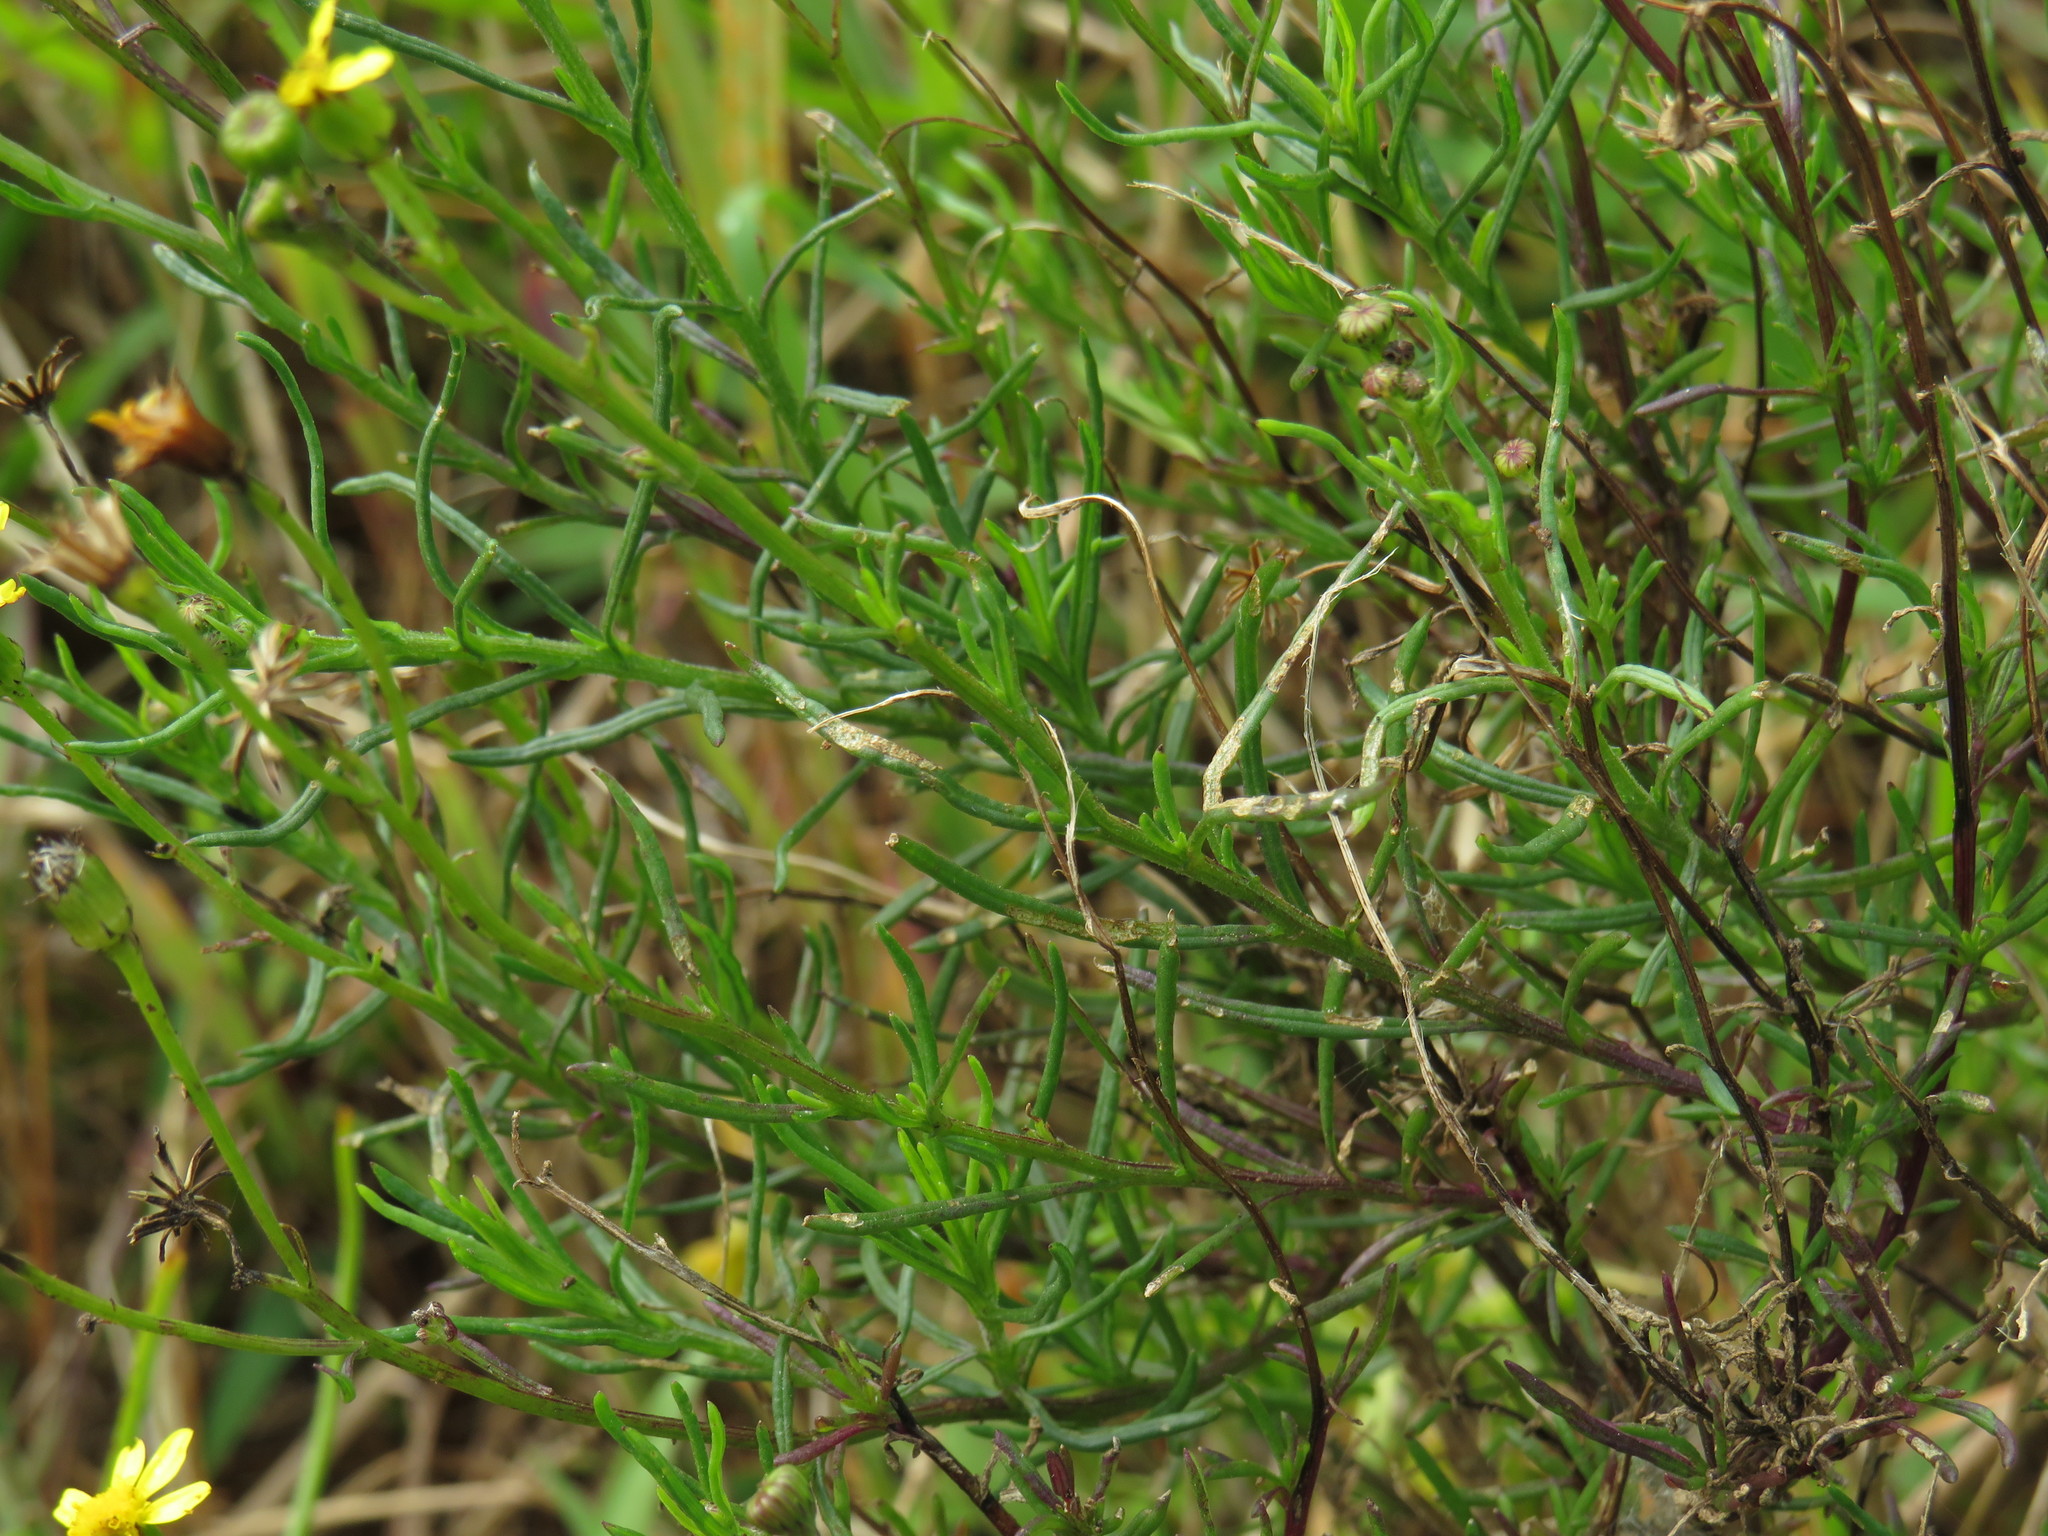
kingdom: Plantae
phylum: Tracheophyta
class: Magnoliopsida
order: Asterales
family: Asteraceae
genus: Senecio
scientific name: Senecio burchellii
